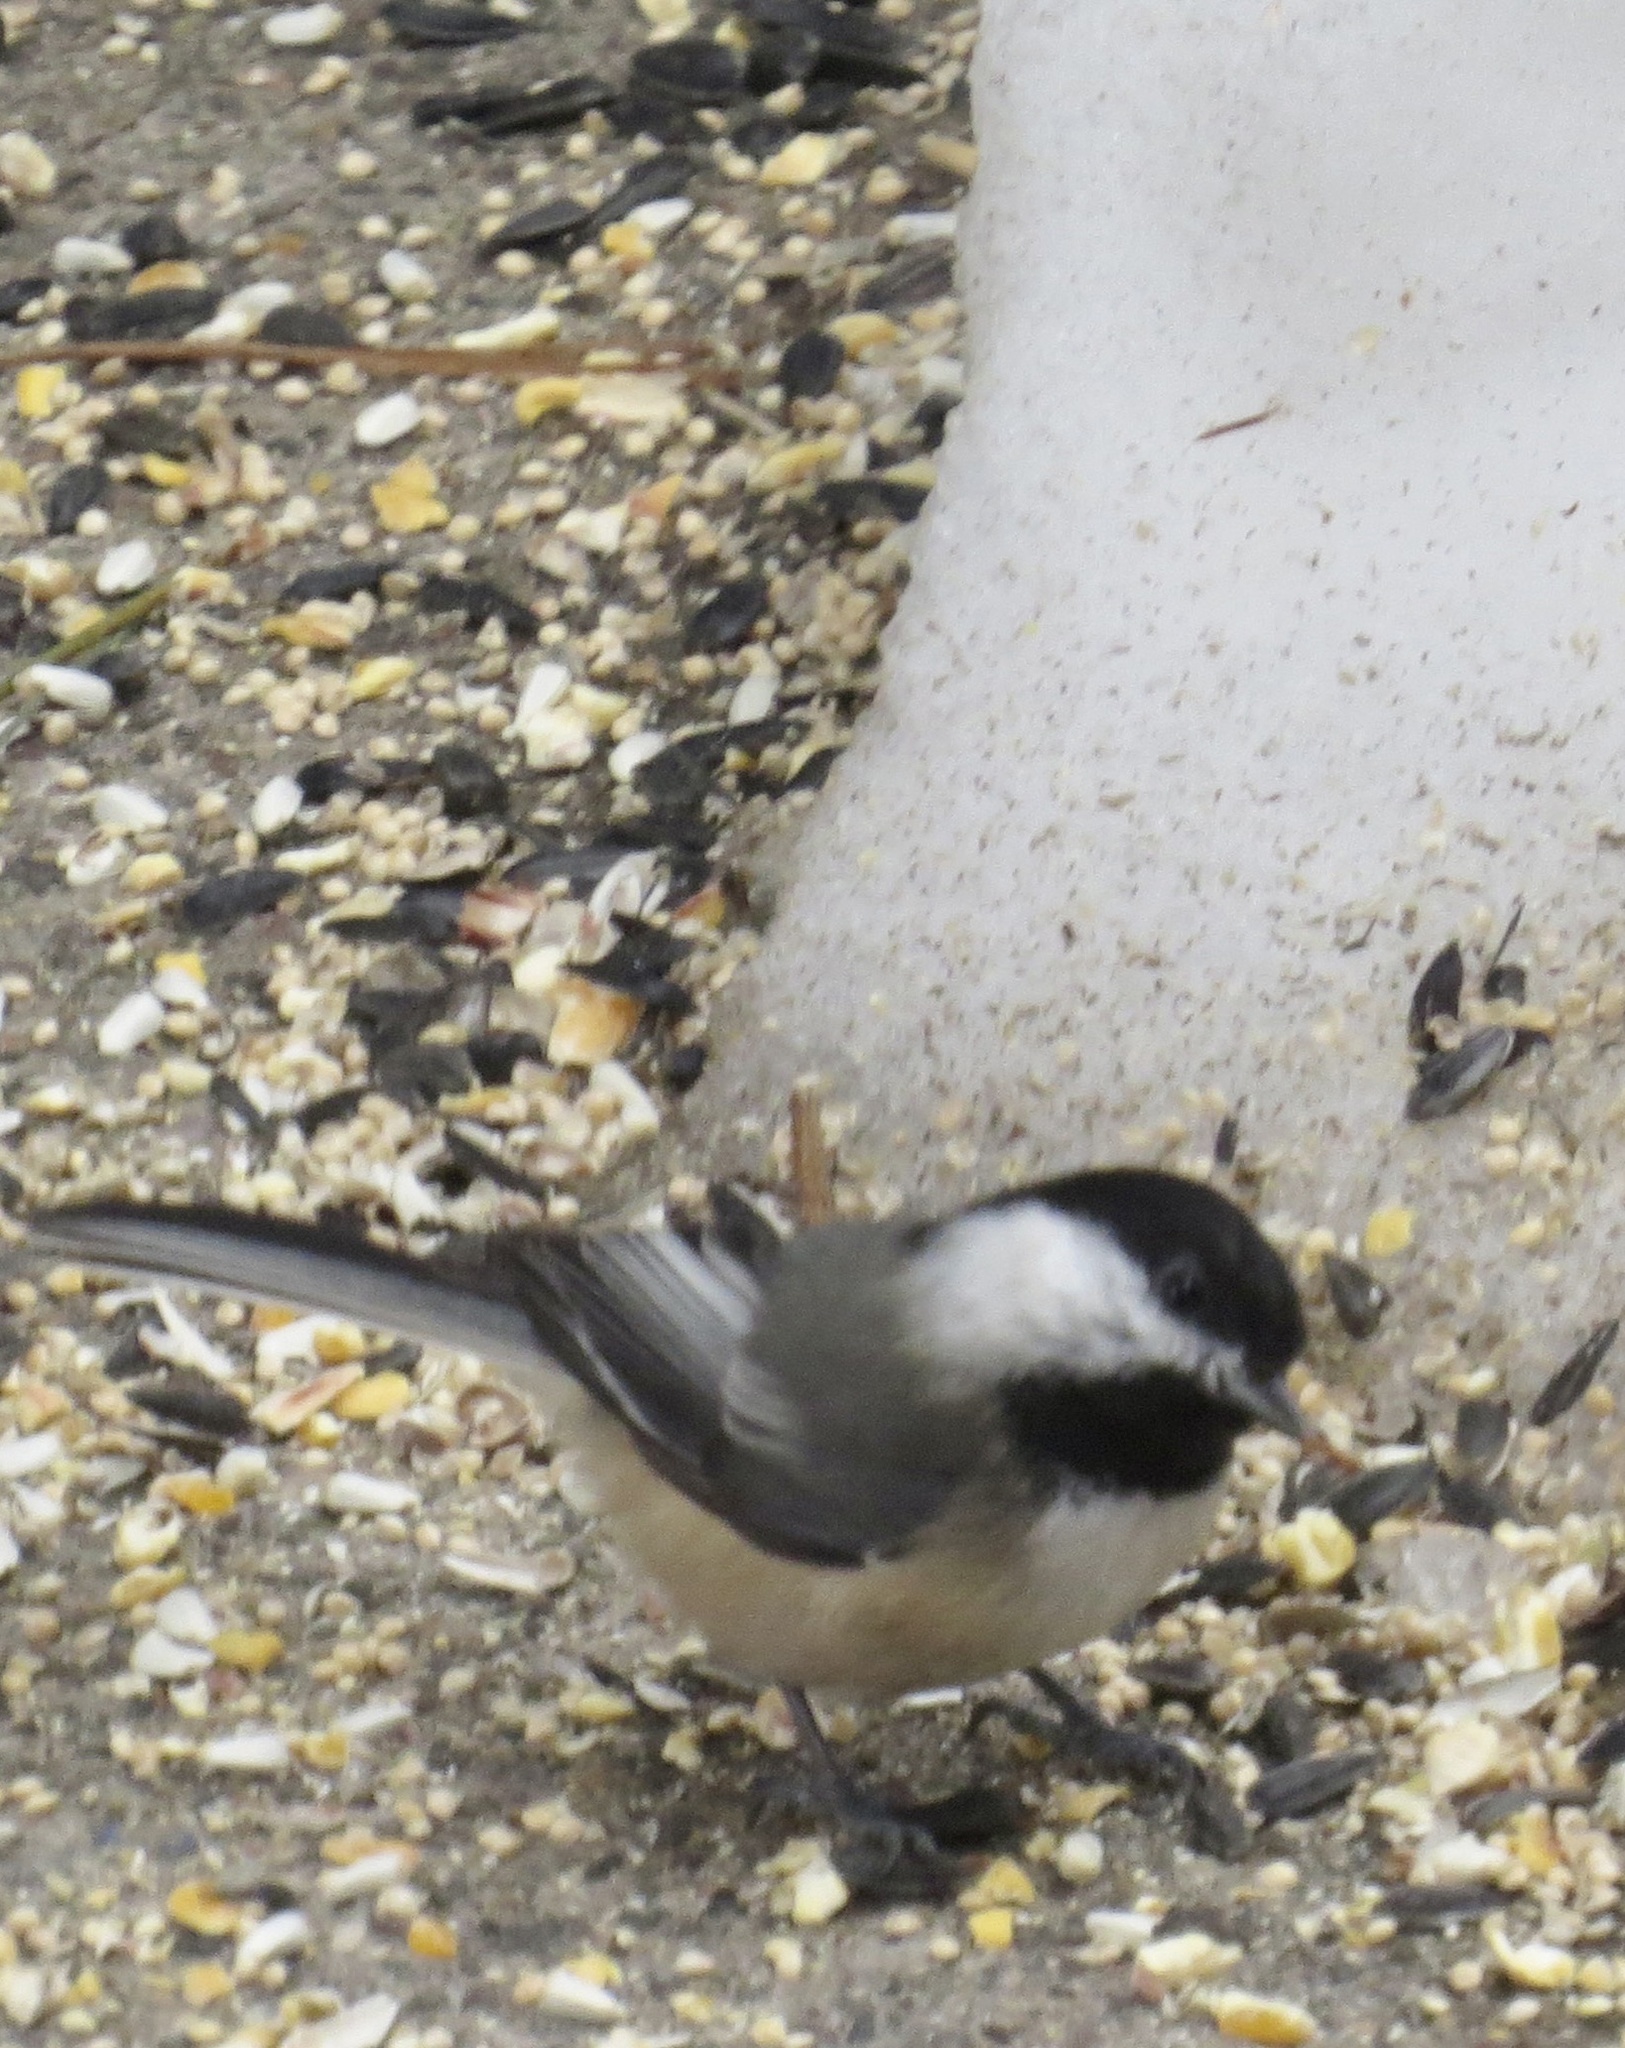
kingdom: Animalia
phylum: Chordata
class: Aves
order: Passeriformes
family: Paridae
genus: Poecile
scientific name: Poecile atricapillus
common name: Black-capped chickadee
